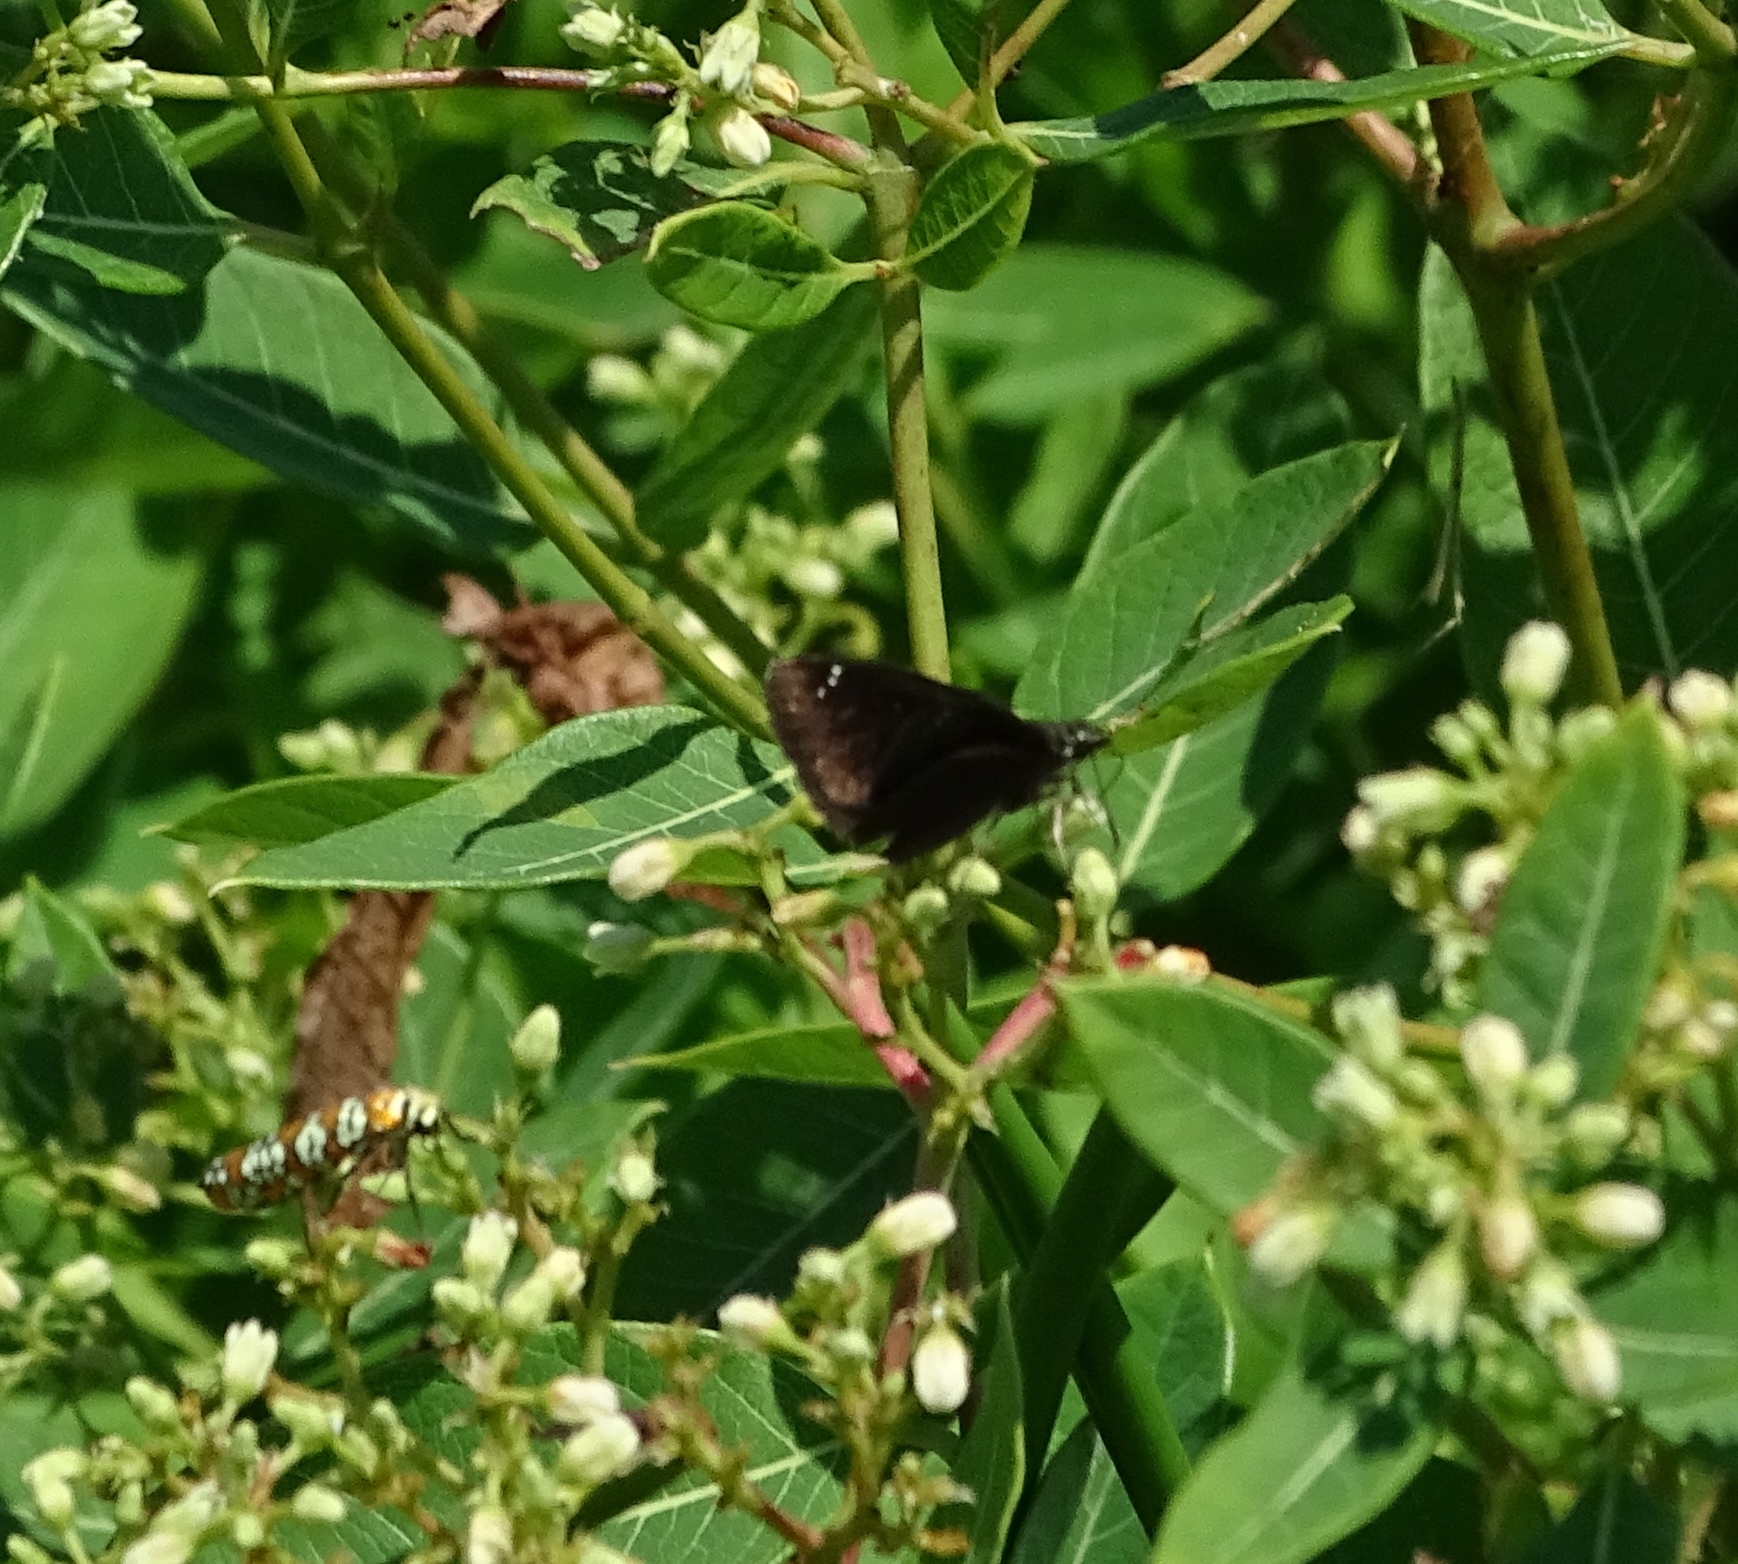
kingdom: Animalia
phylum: Arthropoda
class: Insecta
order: Lepidoptera
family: Hesperiidae
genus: Pholisora
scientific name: Pholisora catullus
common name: Common sootywing
